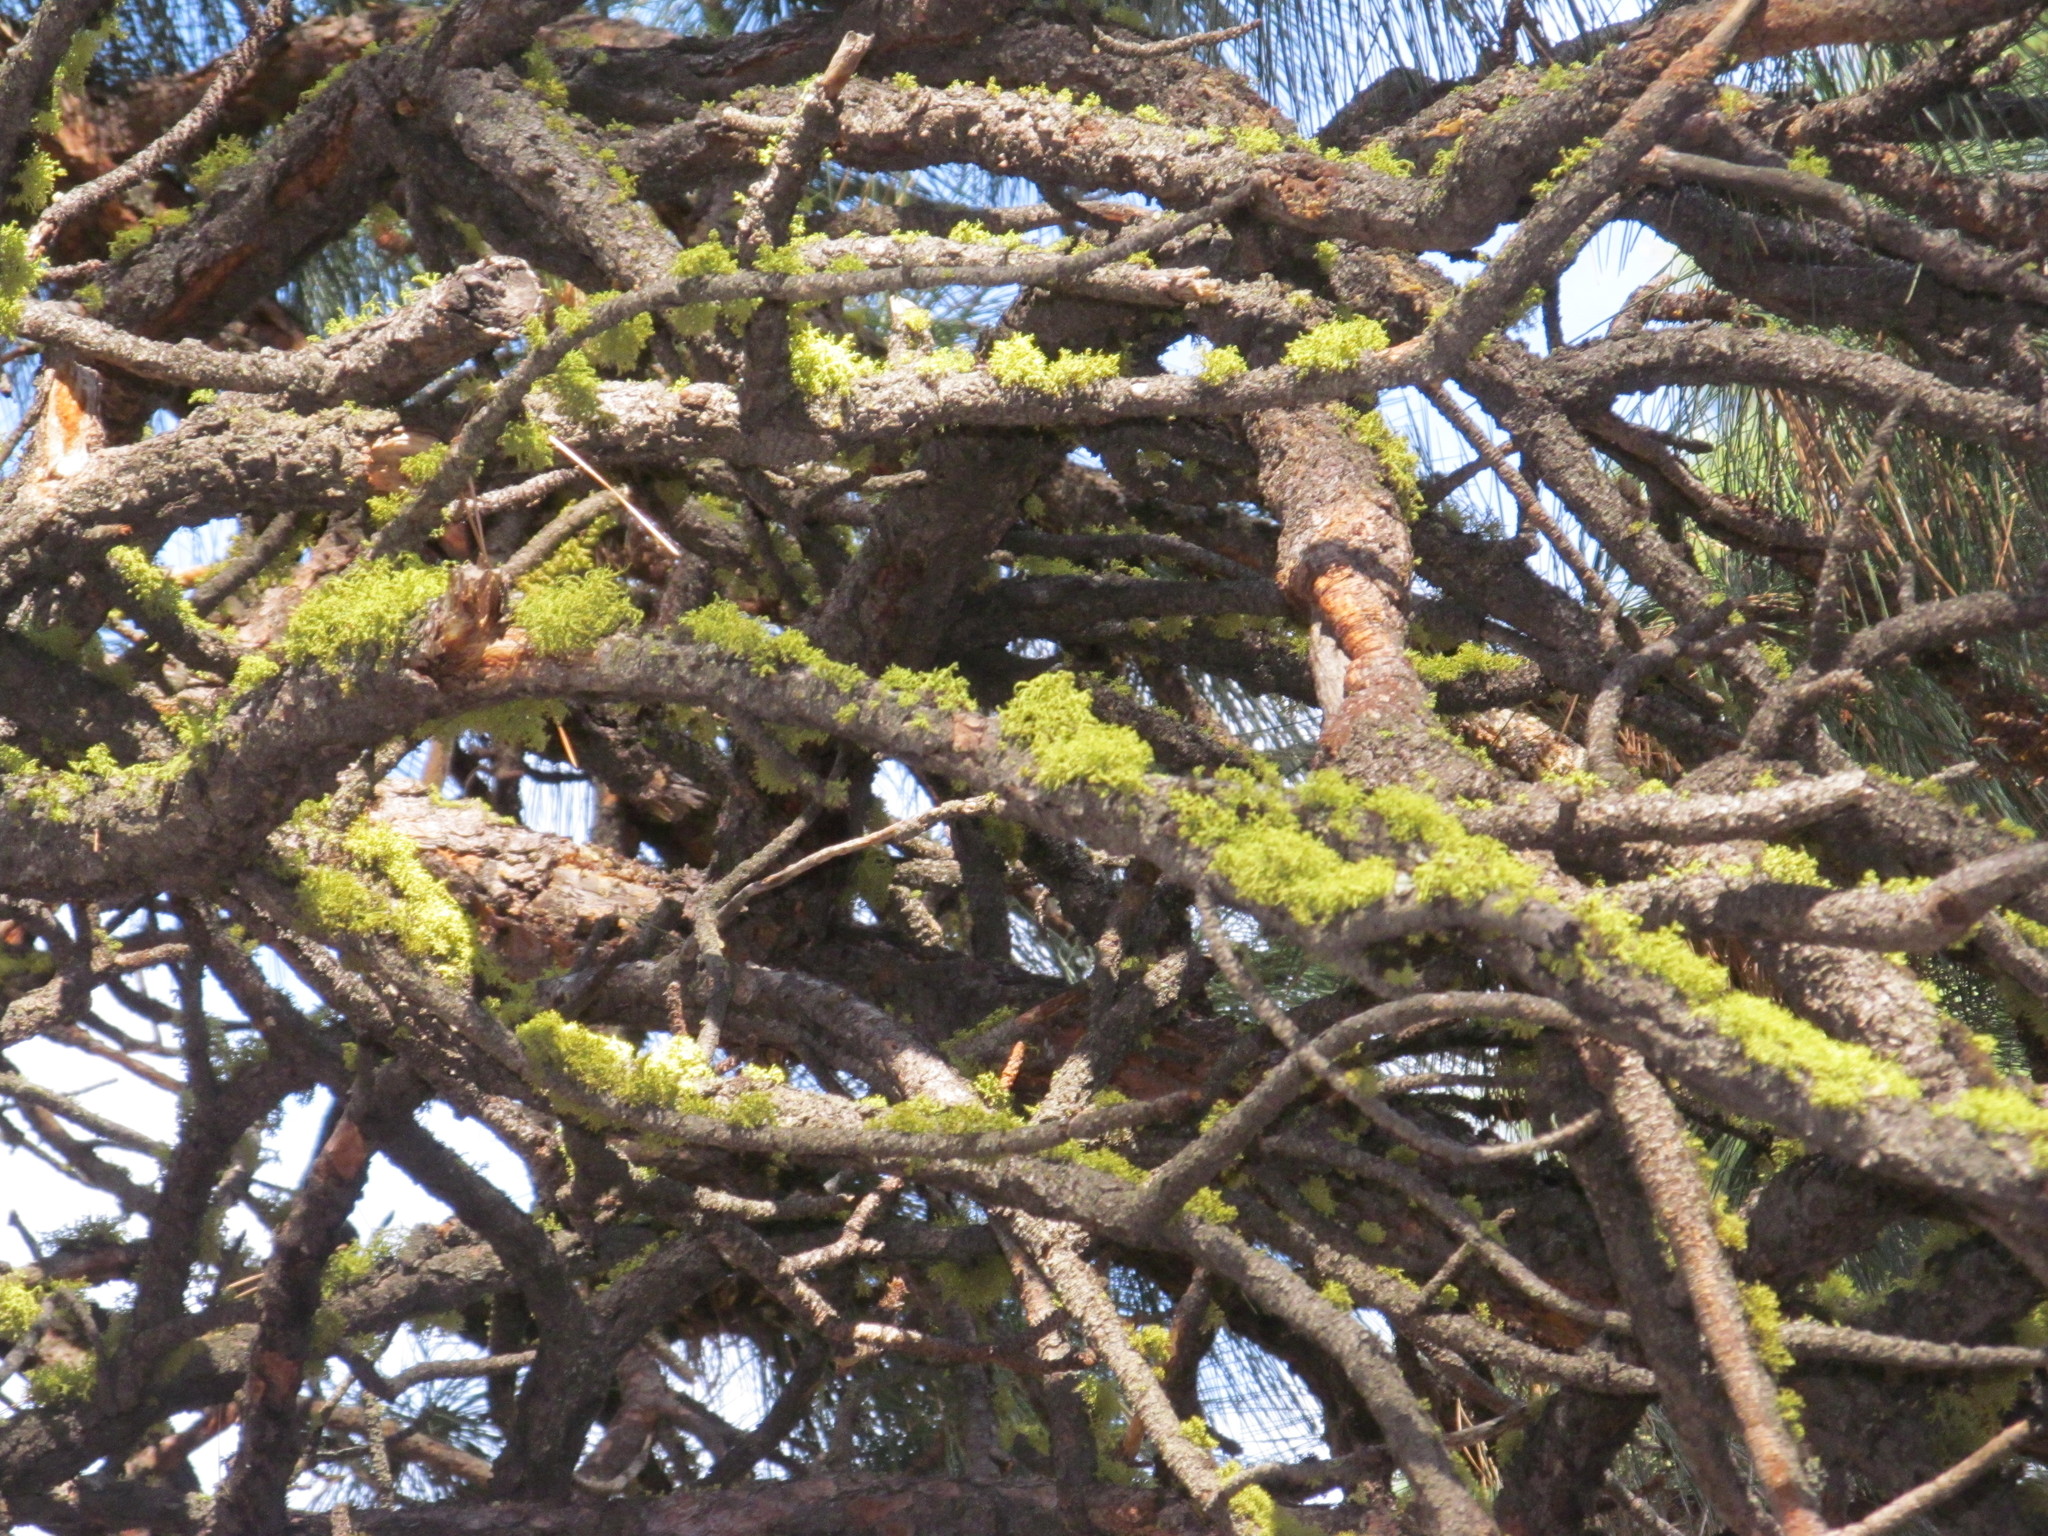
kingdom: Fungi
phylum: Ascomycota
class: Lecanoromycetes
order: Lecanorales
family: Parmeliaceae
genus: Letharia
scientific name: Letharia vulpina
